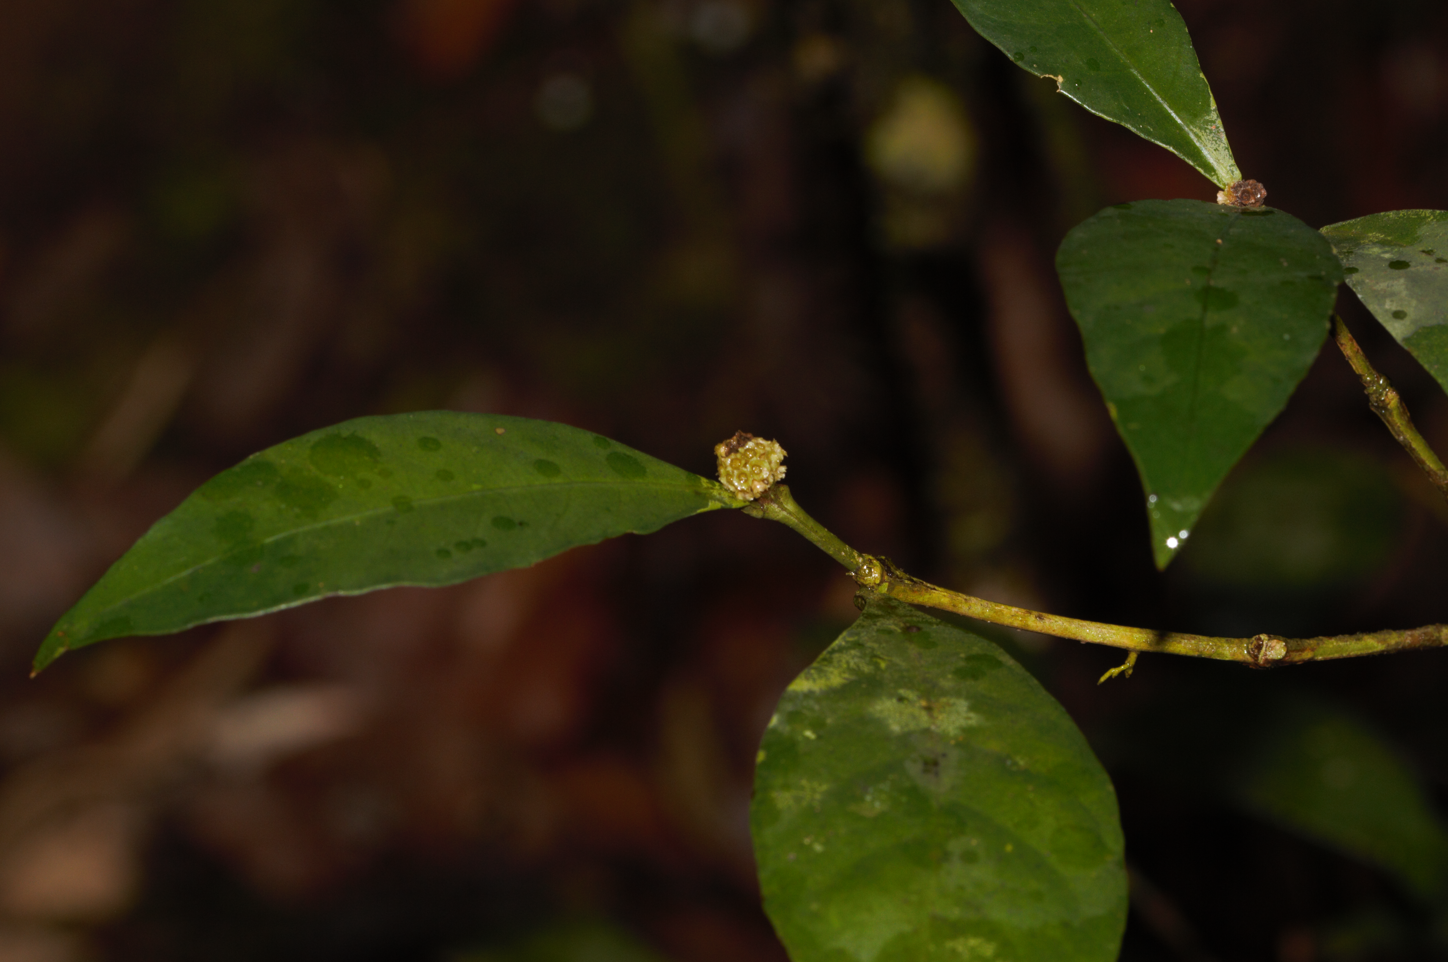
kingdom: Plantae
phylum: Tracheophyta
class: Magnoliopsida
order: Gentianales
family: Rubiaceae
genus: Eumachia
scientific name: Eumachia guianensis
